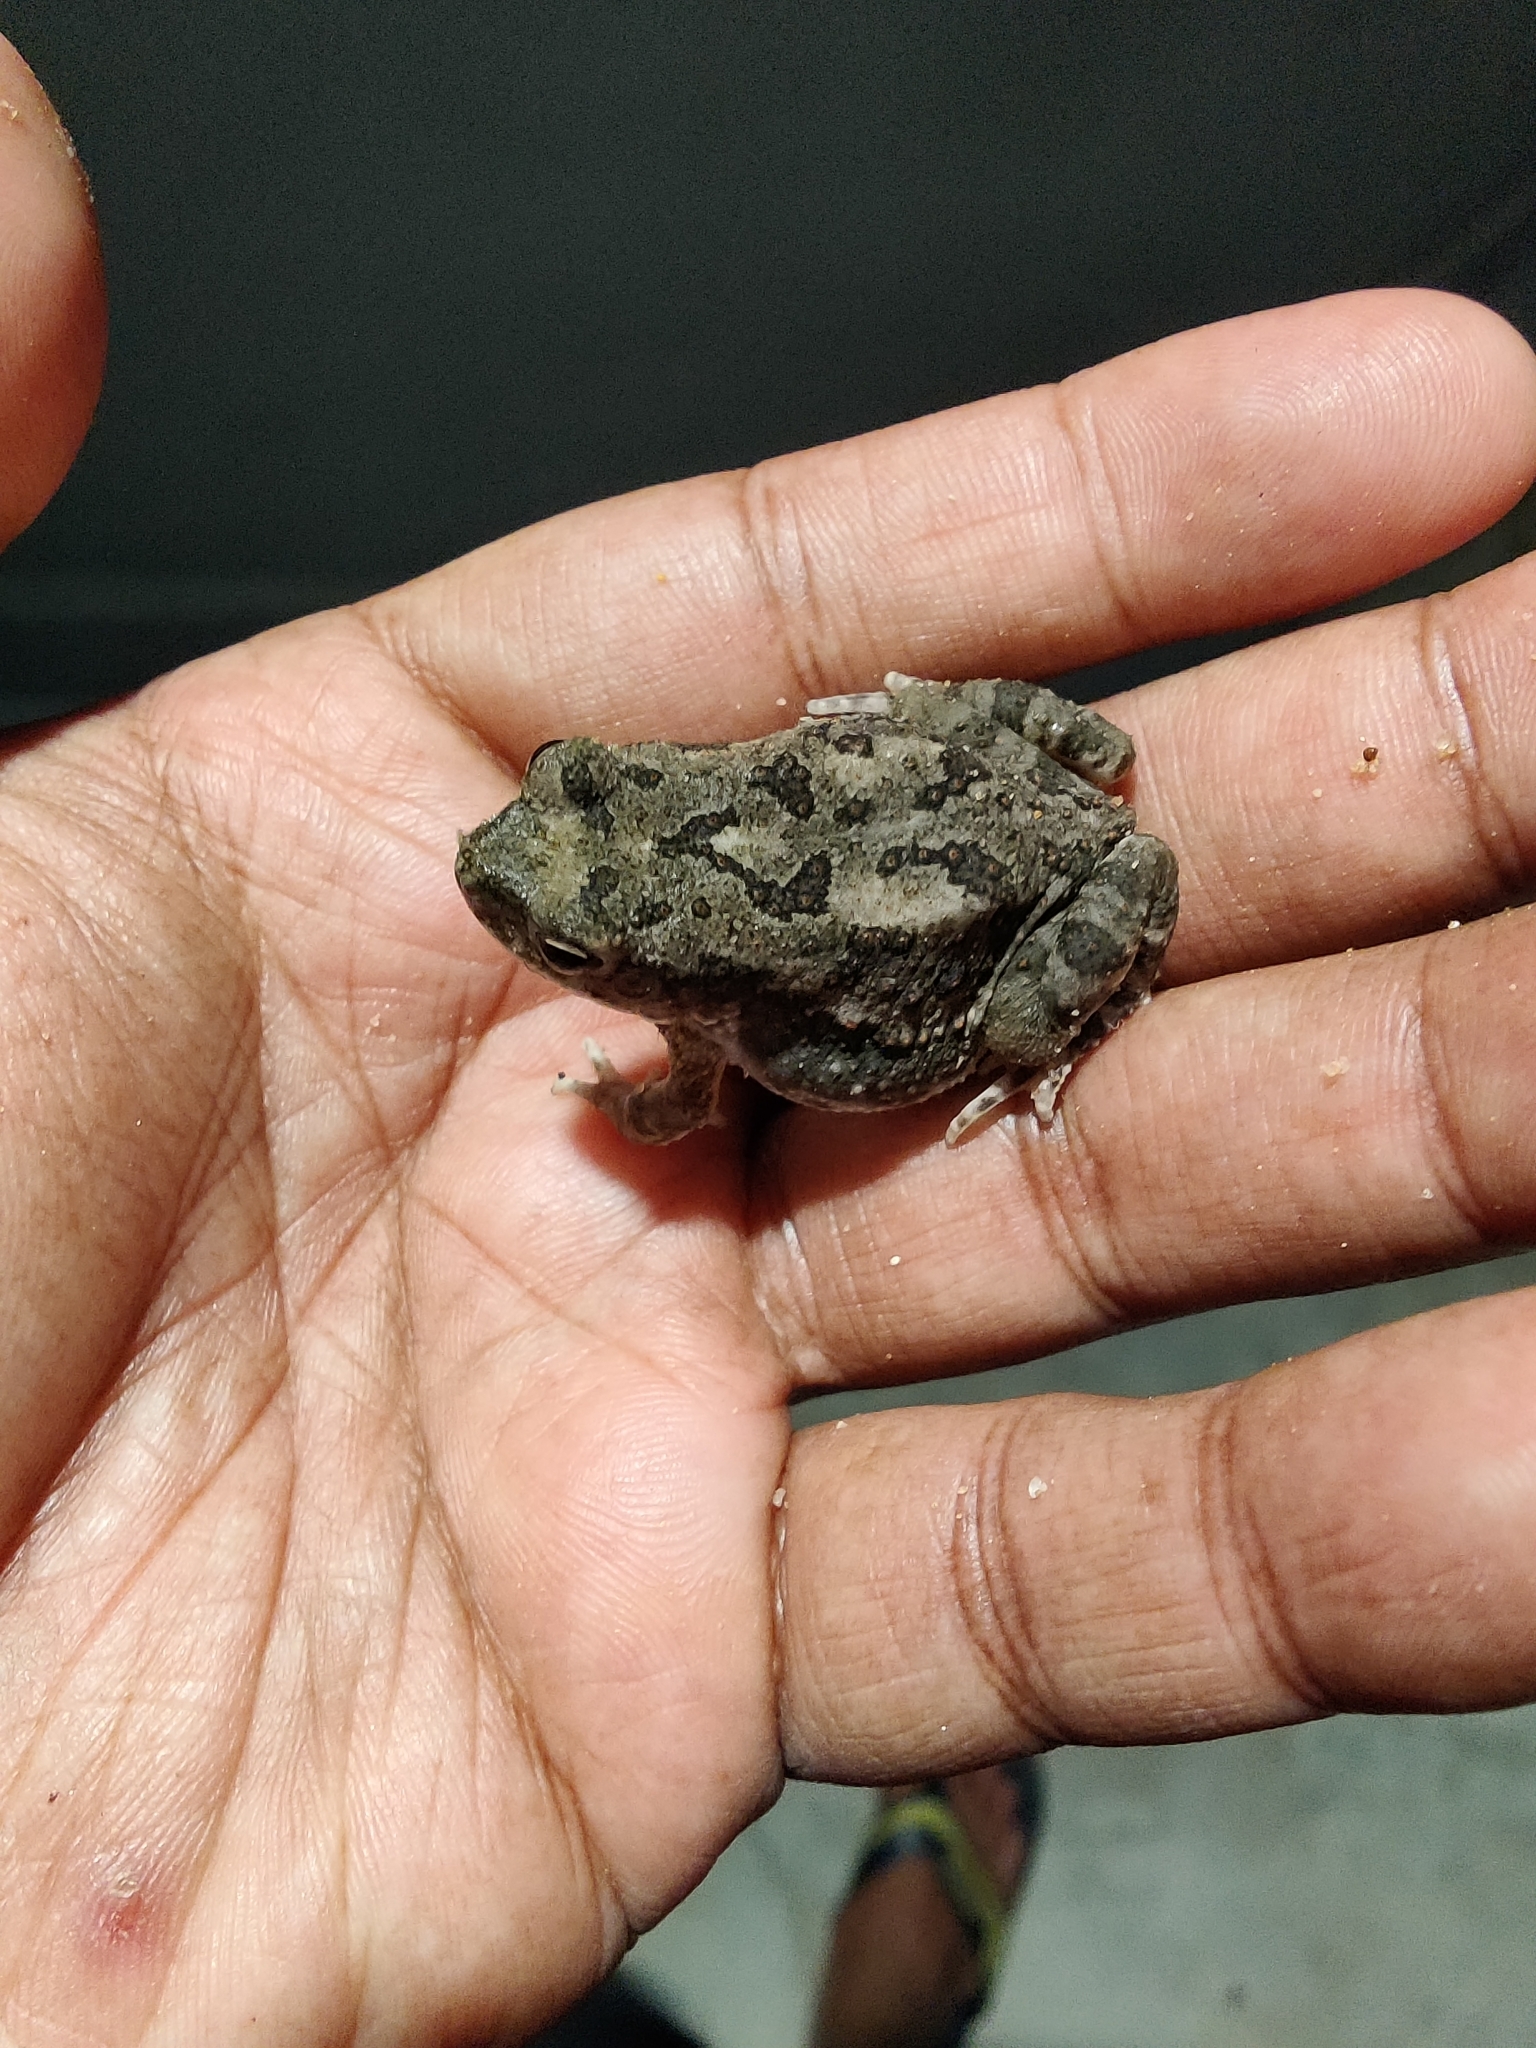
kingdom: Animalia
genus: Firouzophrynus
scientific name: Firouzophrynus
